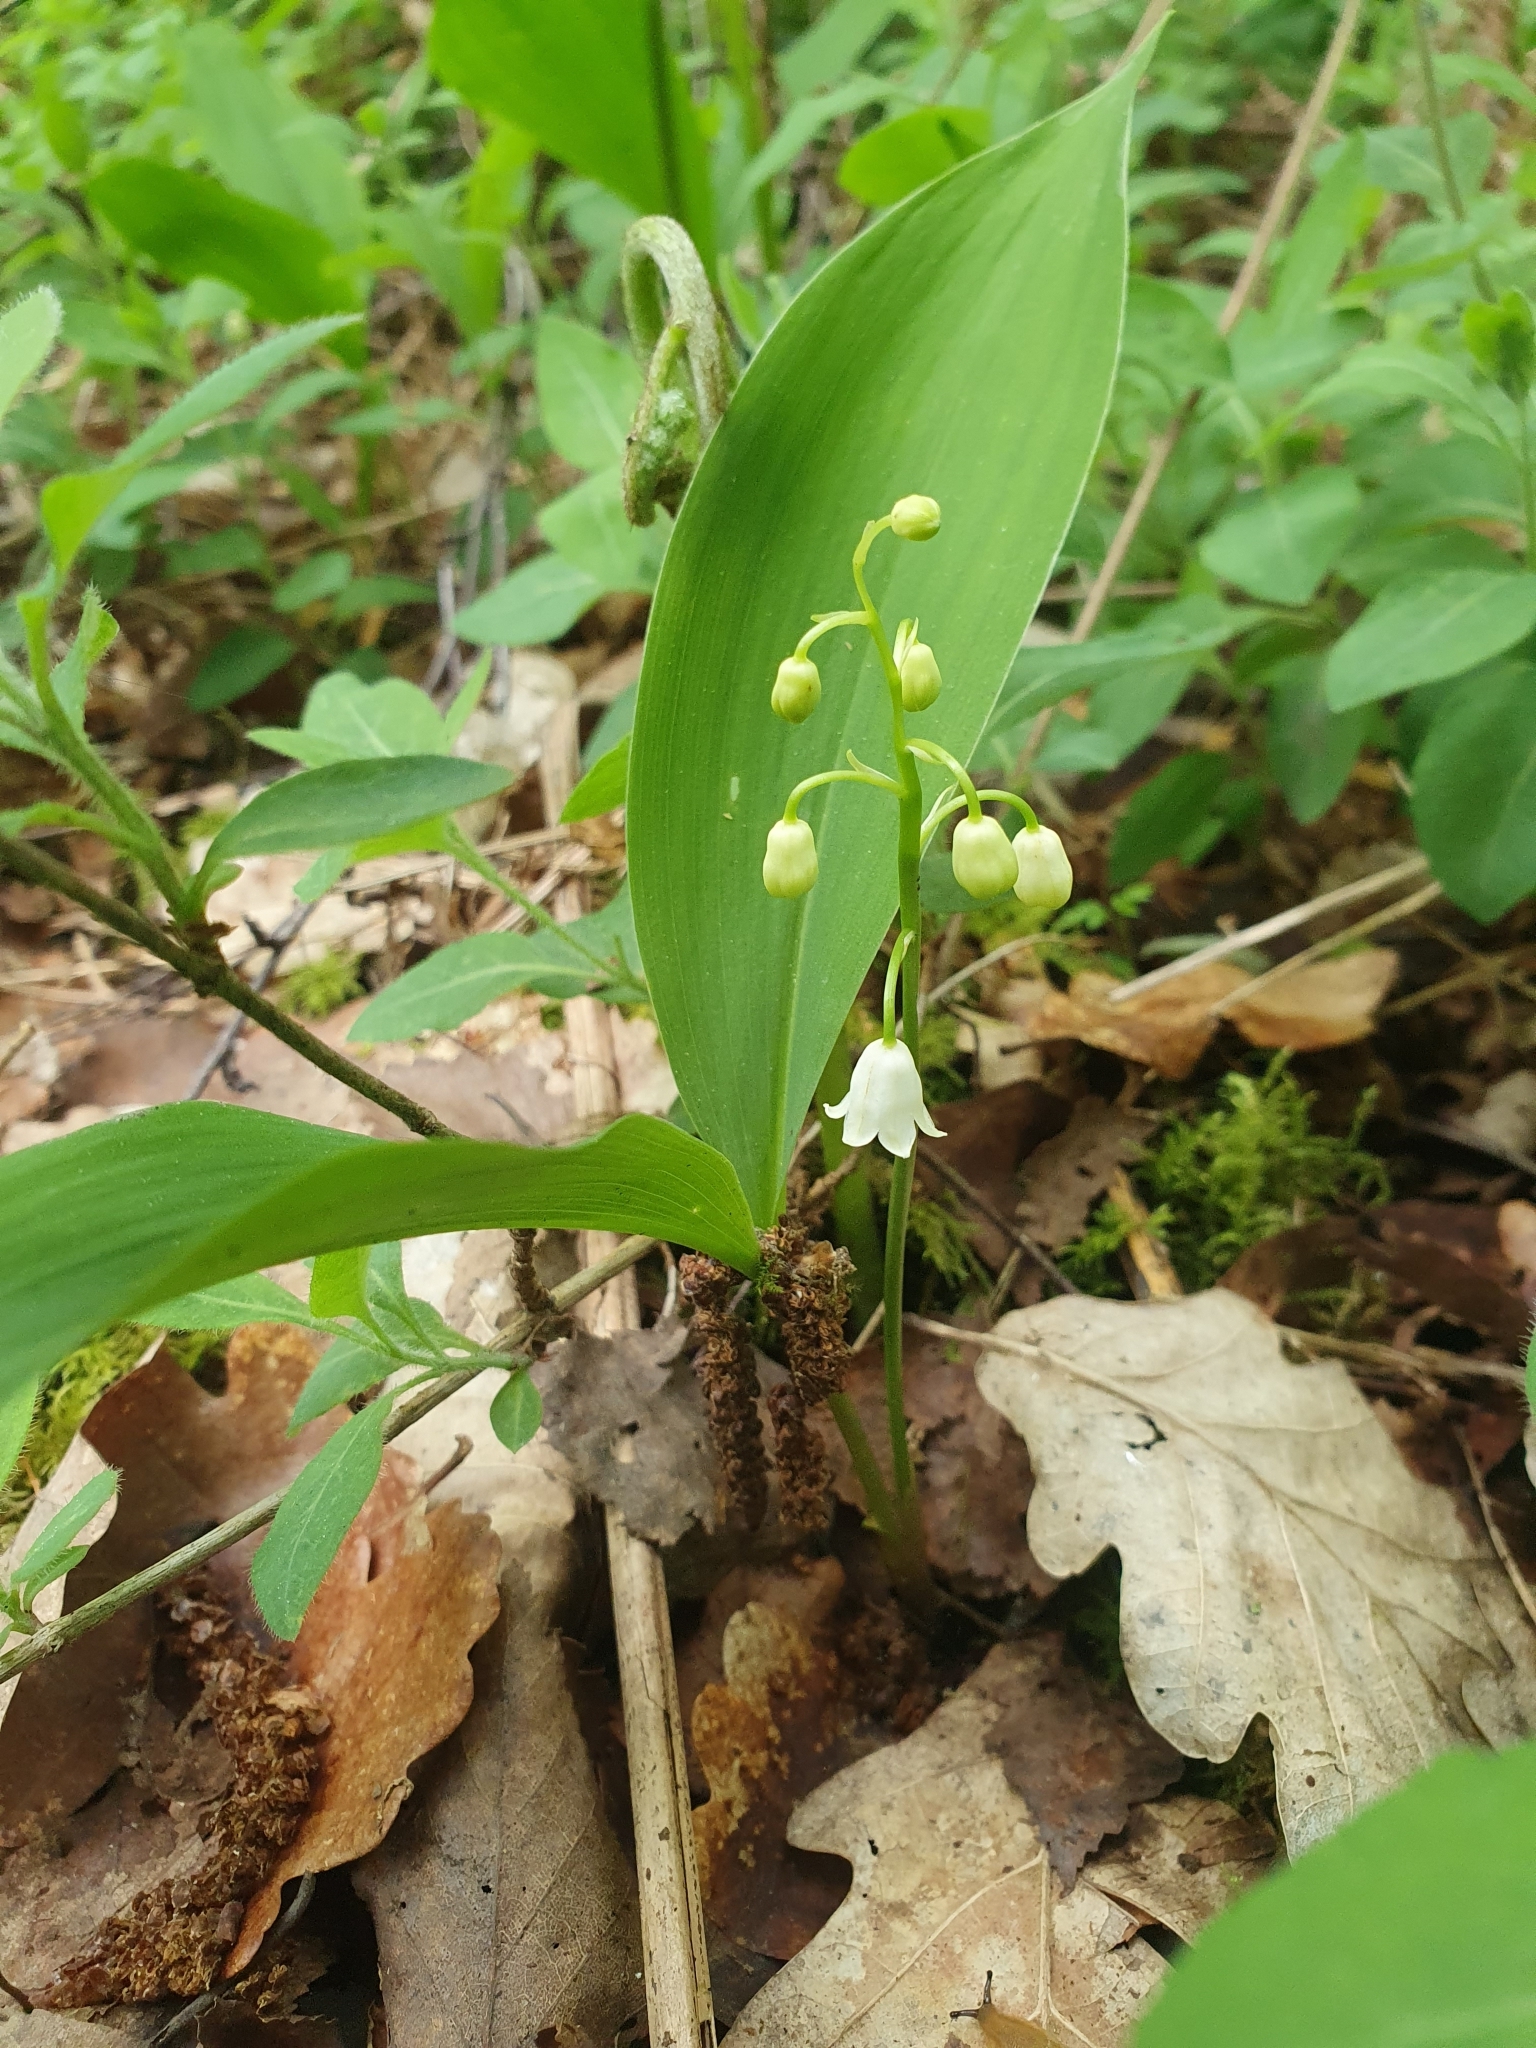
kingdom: Plantae
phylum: Tracheophyta
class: Liliopsida
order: Asparagales
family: Asparagaceae
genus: Convallaria
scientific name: Convallaria majalis
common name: Lily-of-the-valley
